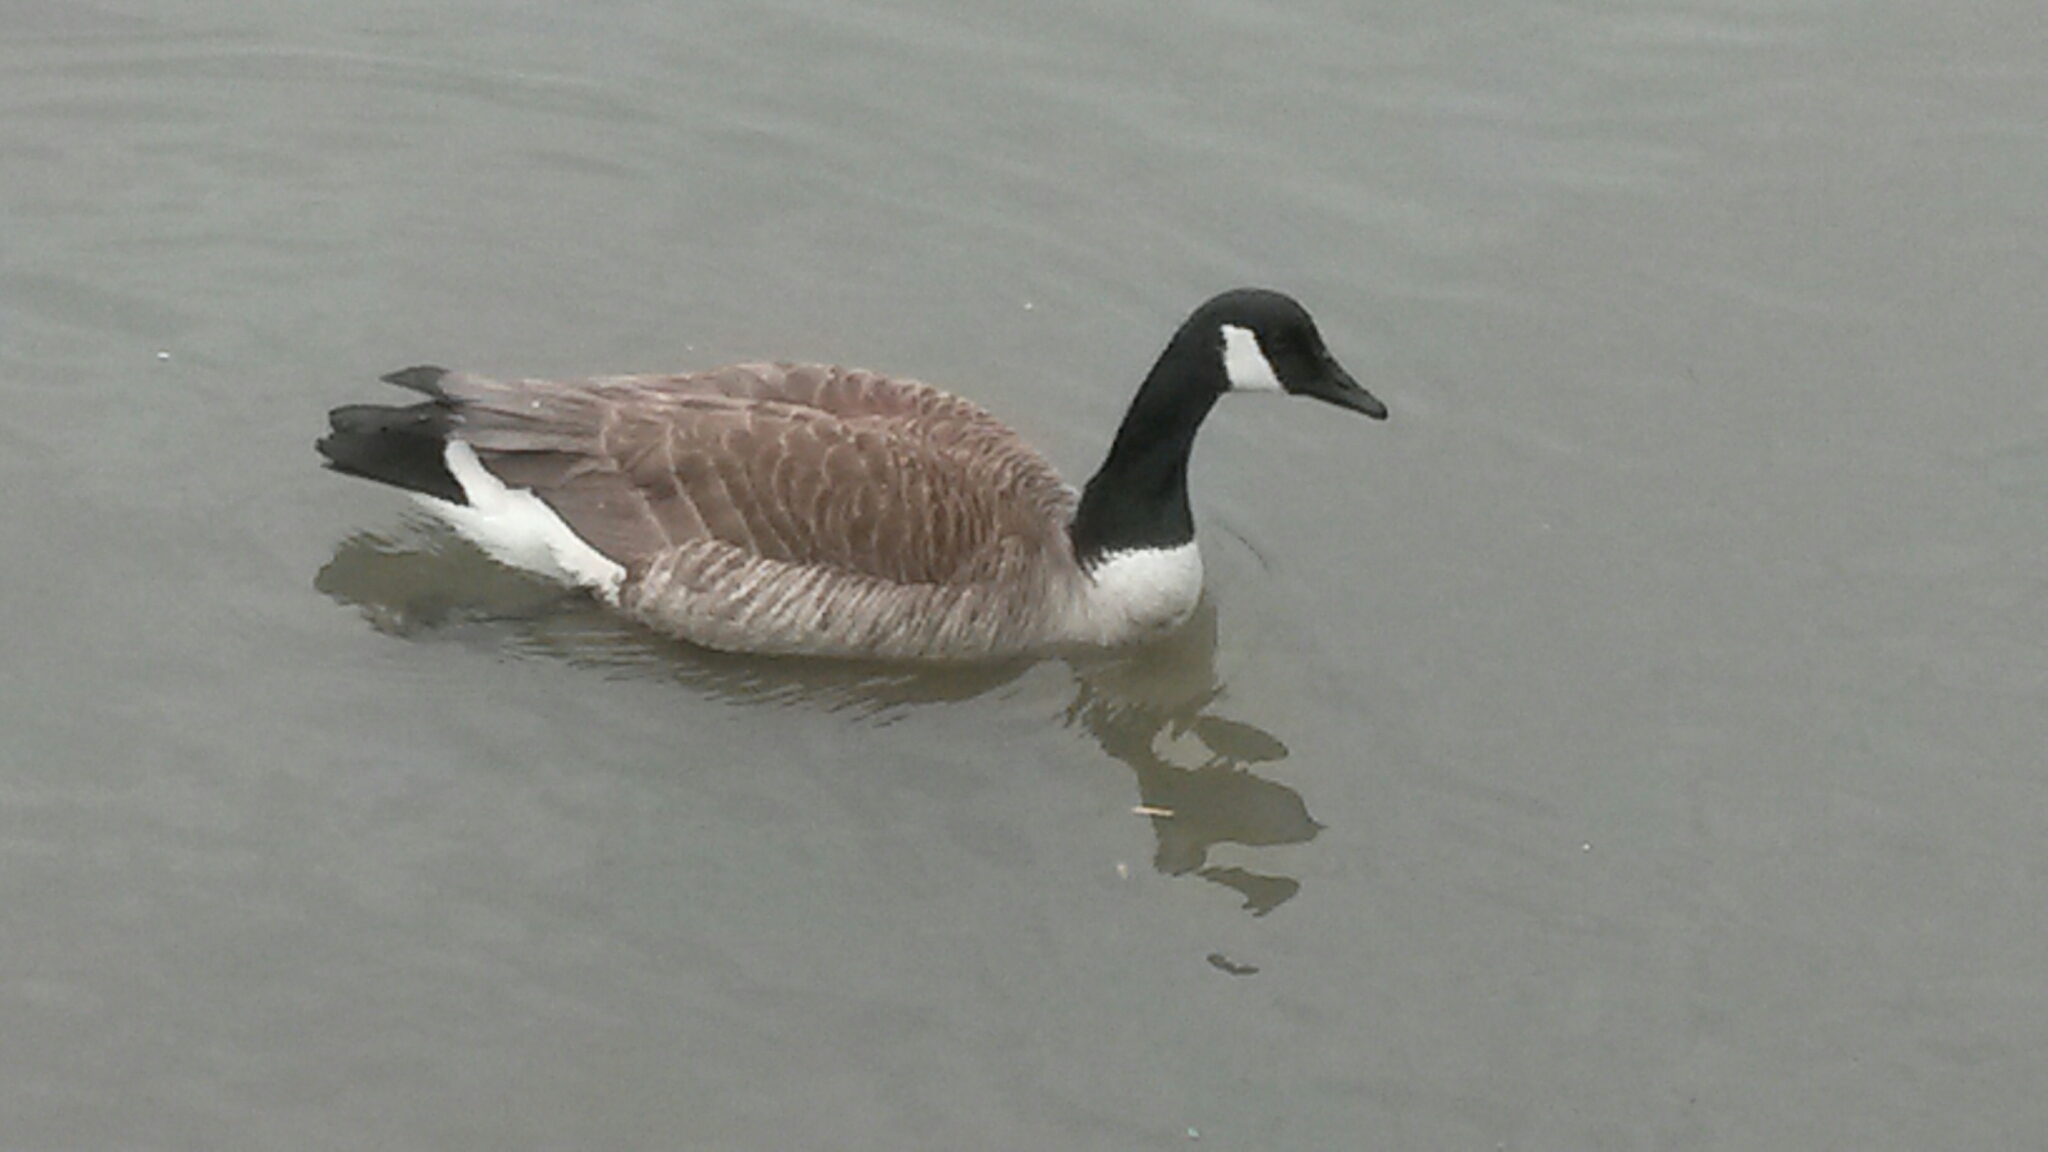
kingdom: Animalia
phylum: Chordata
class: Aves
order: Anseriformes
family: Anatidae
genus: Branta
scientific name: Branta canadensis
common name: Canada goose
